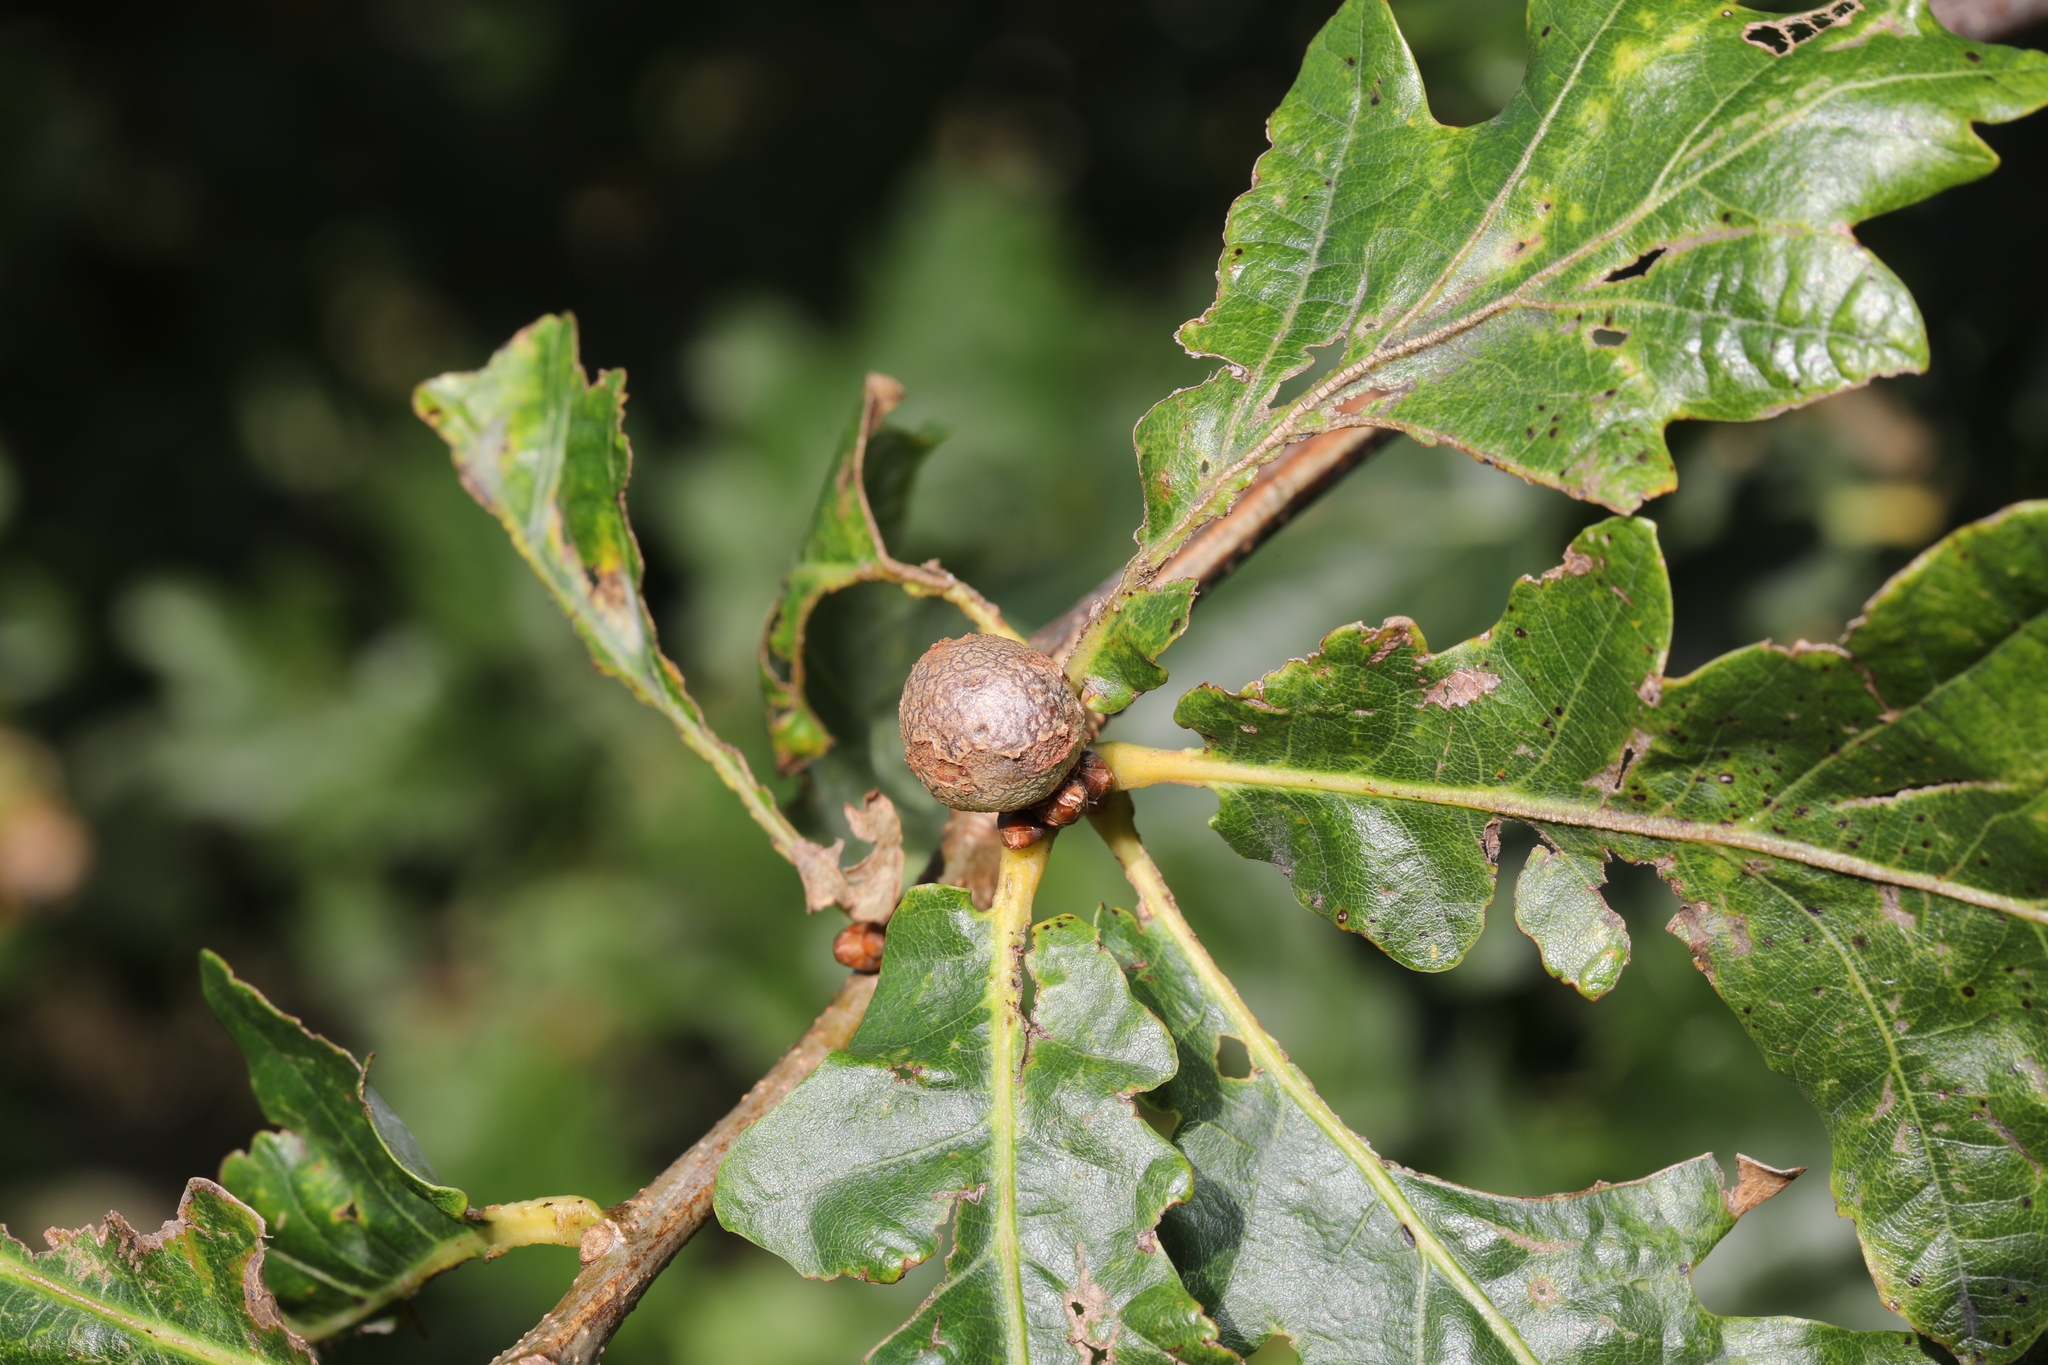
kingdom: Animalia
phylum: Arthropoda
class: Insecta
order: Hymenoptera
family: Cynipidae
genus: Andricus
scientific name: Andricus lignicolus
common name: Cola-nut gall
